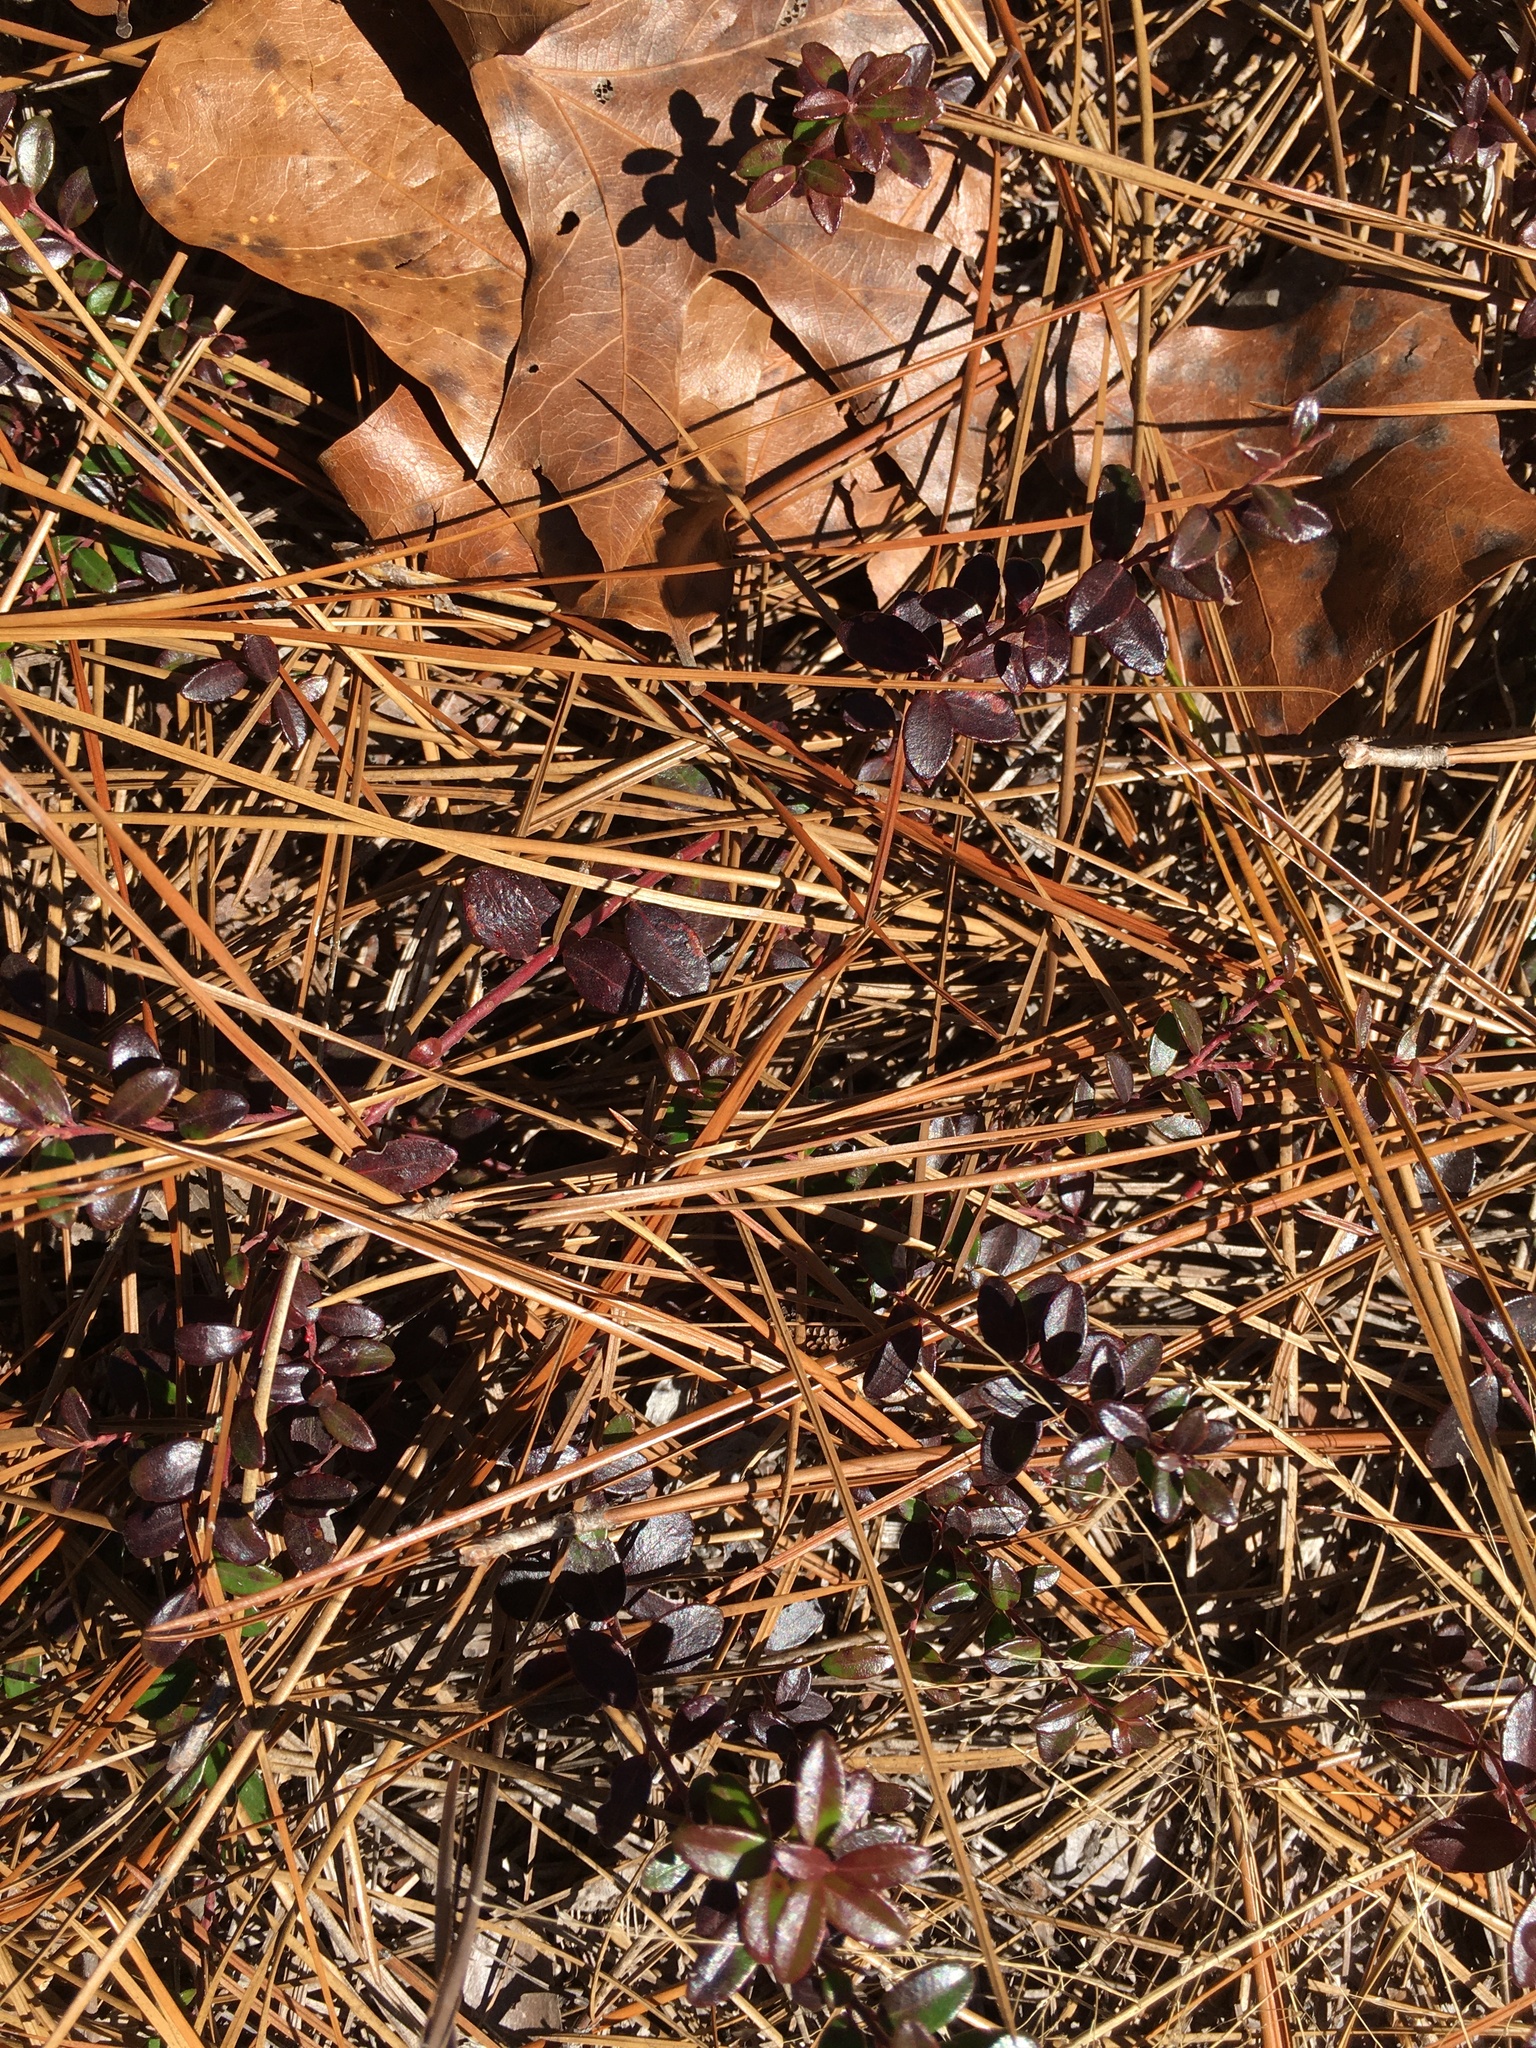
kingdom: Plantae
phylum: Tracheophyta
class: Magnoliopsida
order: Ericales
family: Ericaceae
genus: Vaccinium
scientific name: Vaccinium crassifolium
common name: Creeping blueberry
